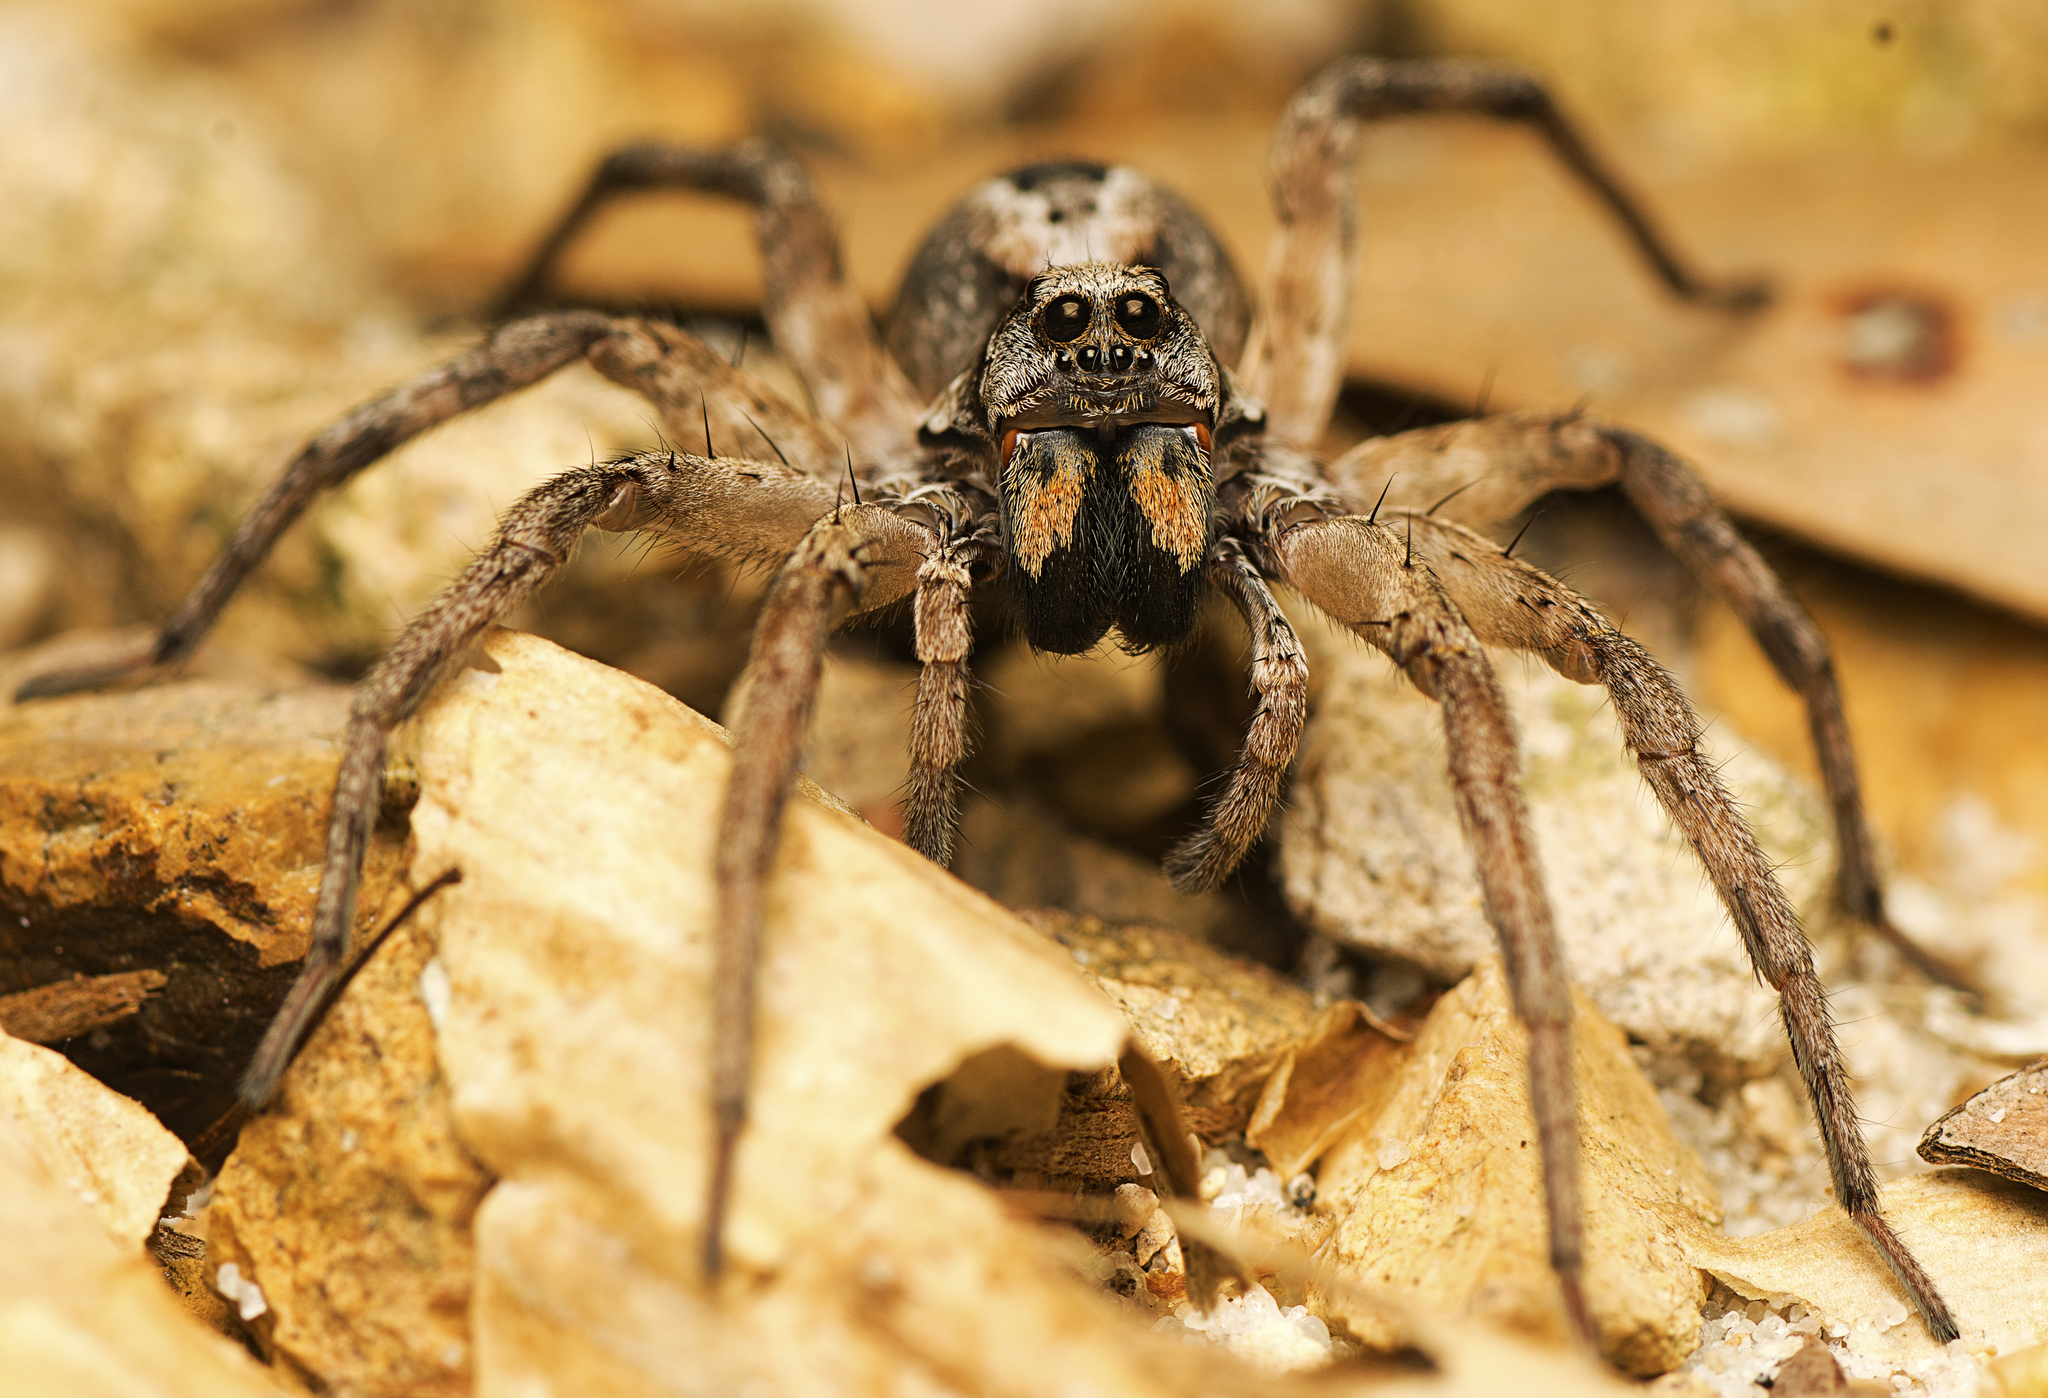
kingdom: Animalia
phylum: Arthropoda
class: Arachnida
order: Araneae
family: Lycosidae
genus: Venator
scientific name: Venator spenceri
